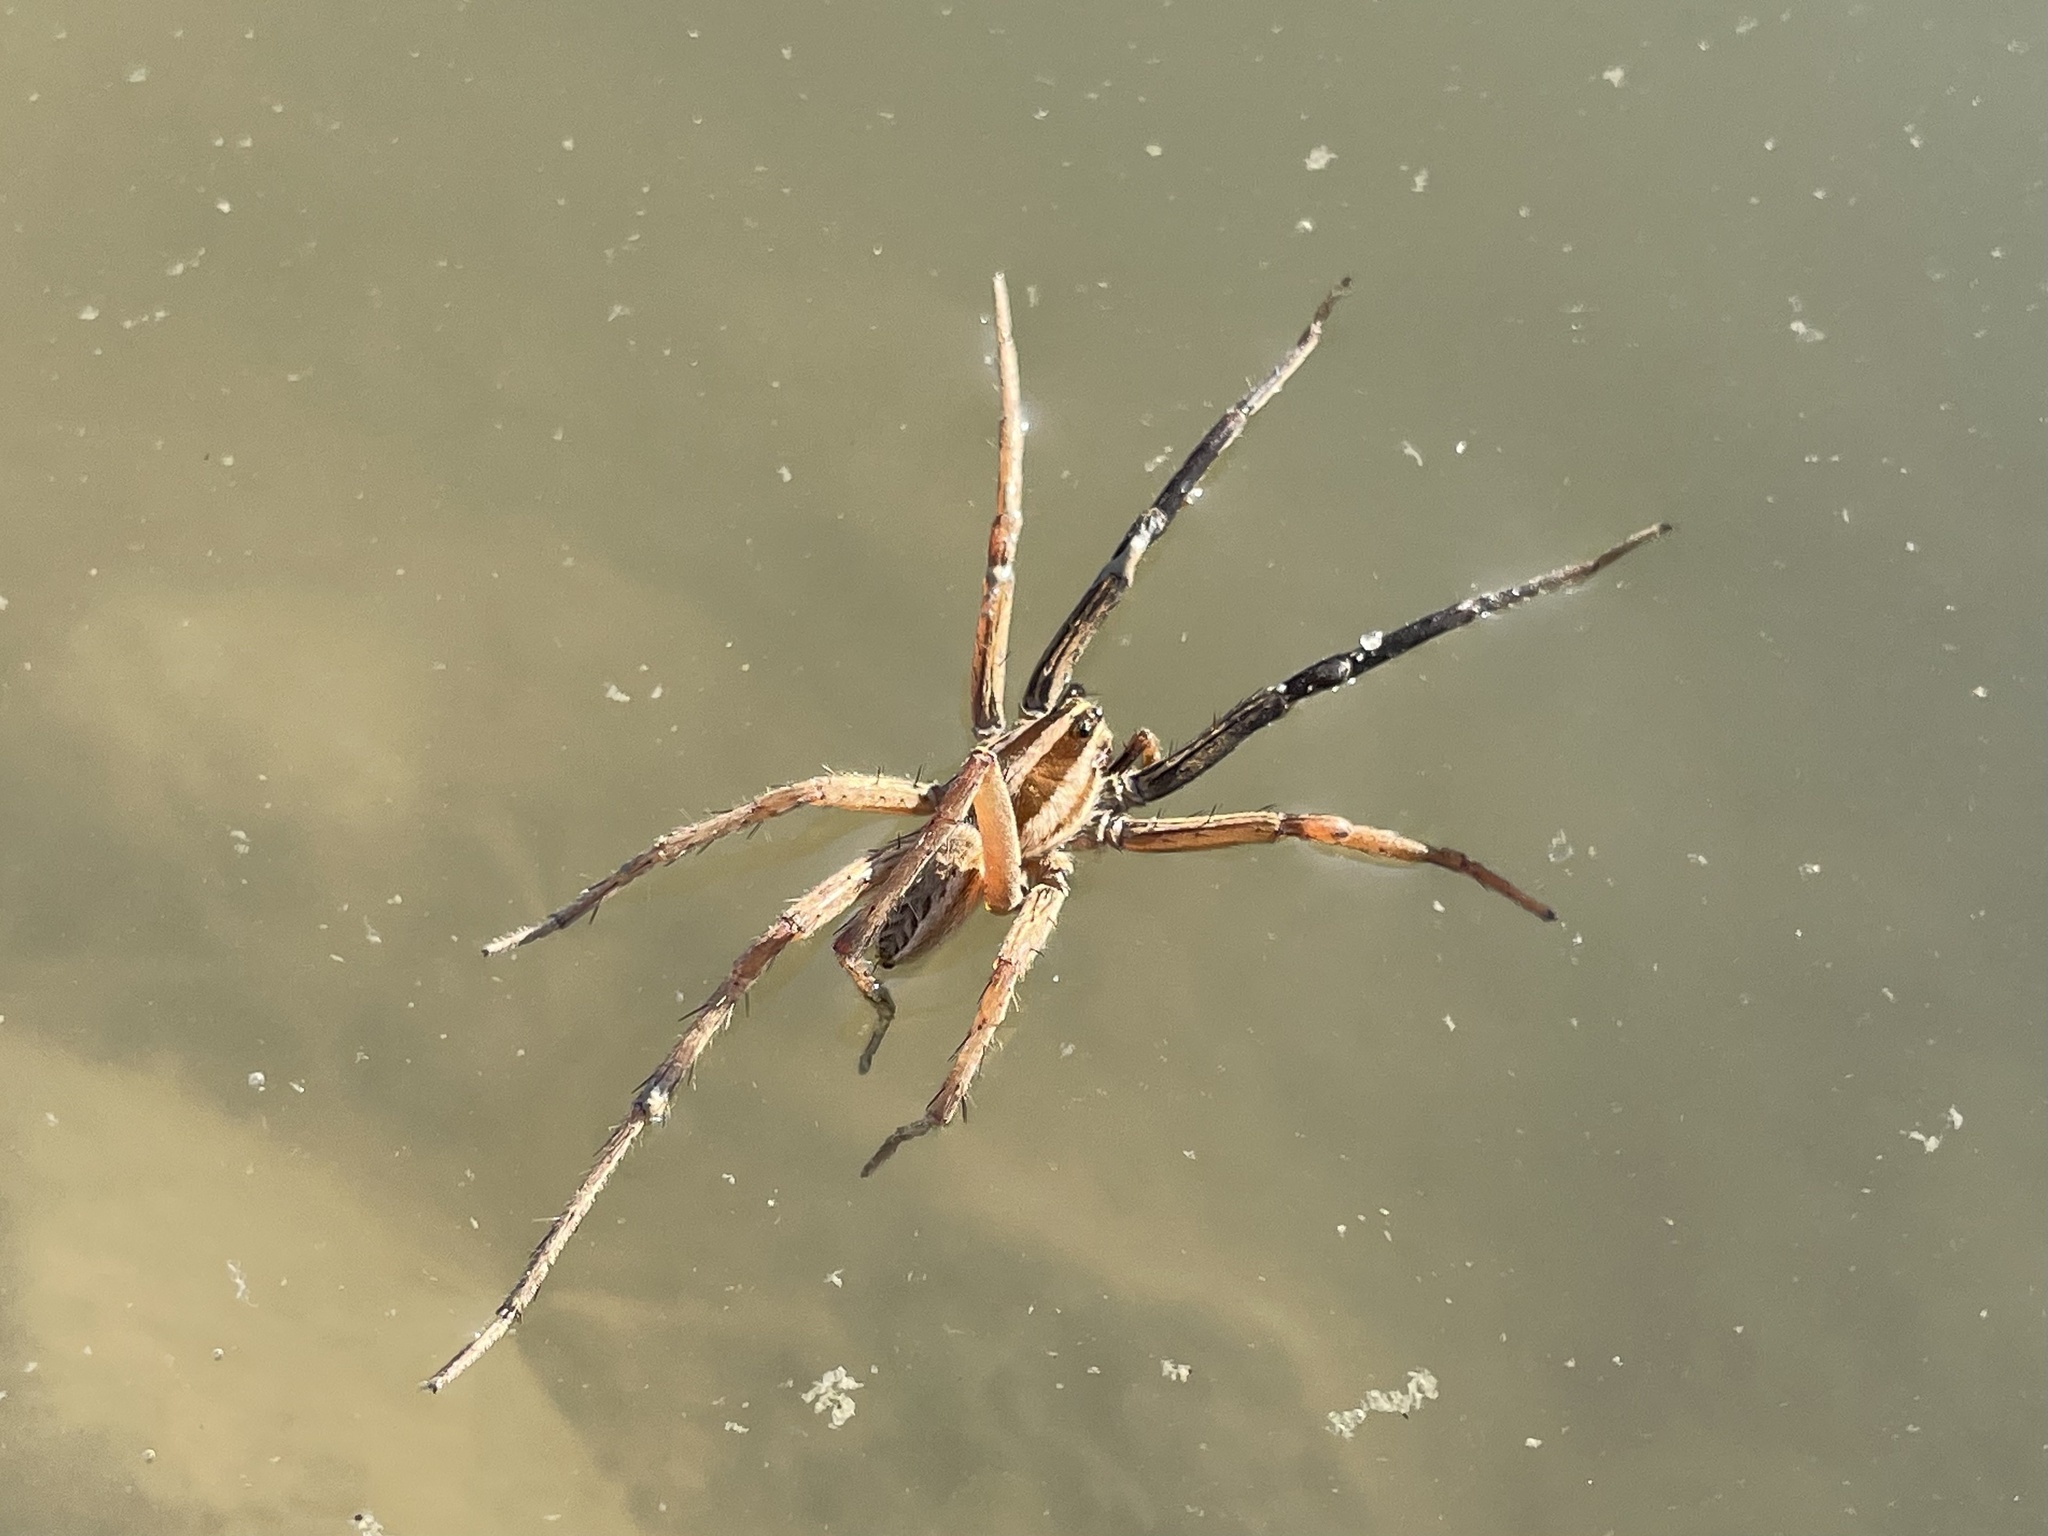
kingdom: Animalia
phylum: Arthropoda
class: Arachnida
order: Araneae
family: Lycosidae
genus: Rabidosa
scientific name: Rabidosa rabida
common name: Rabid wolf spider
